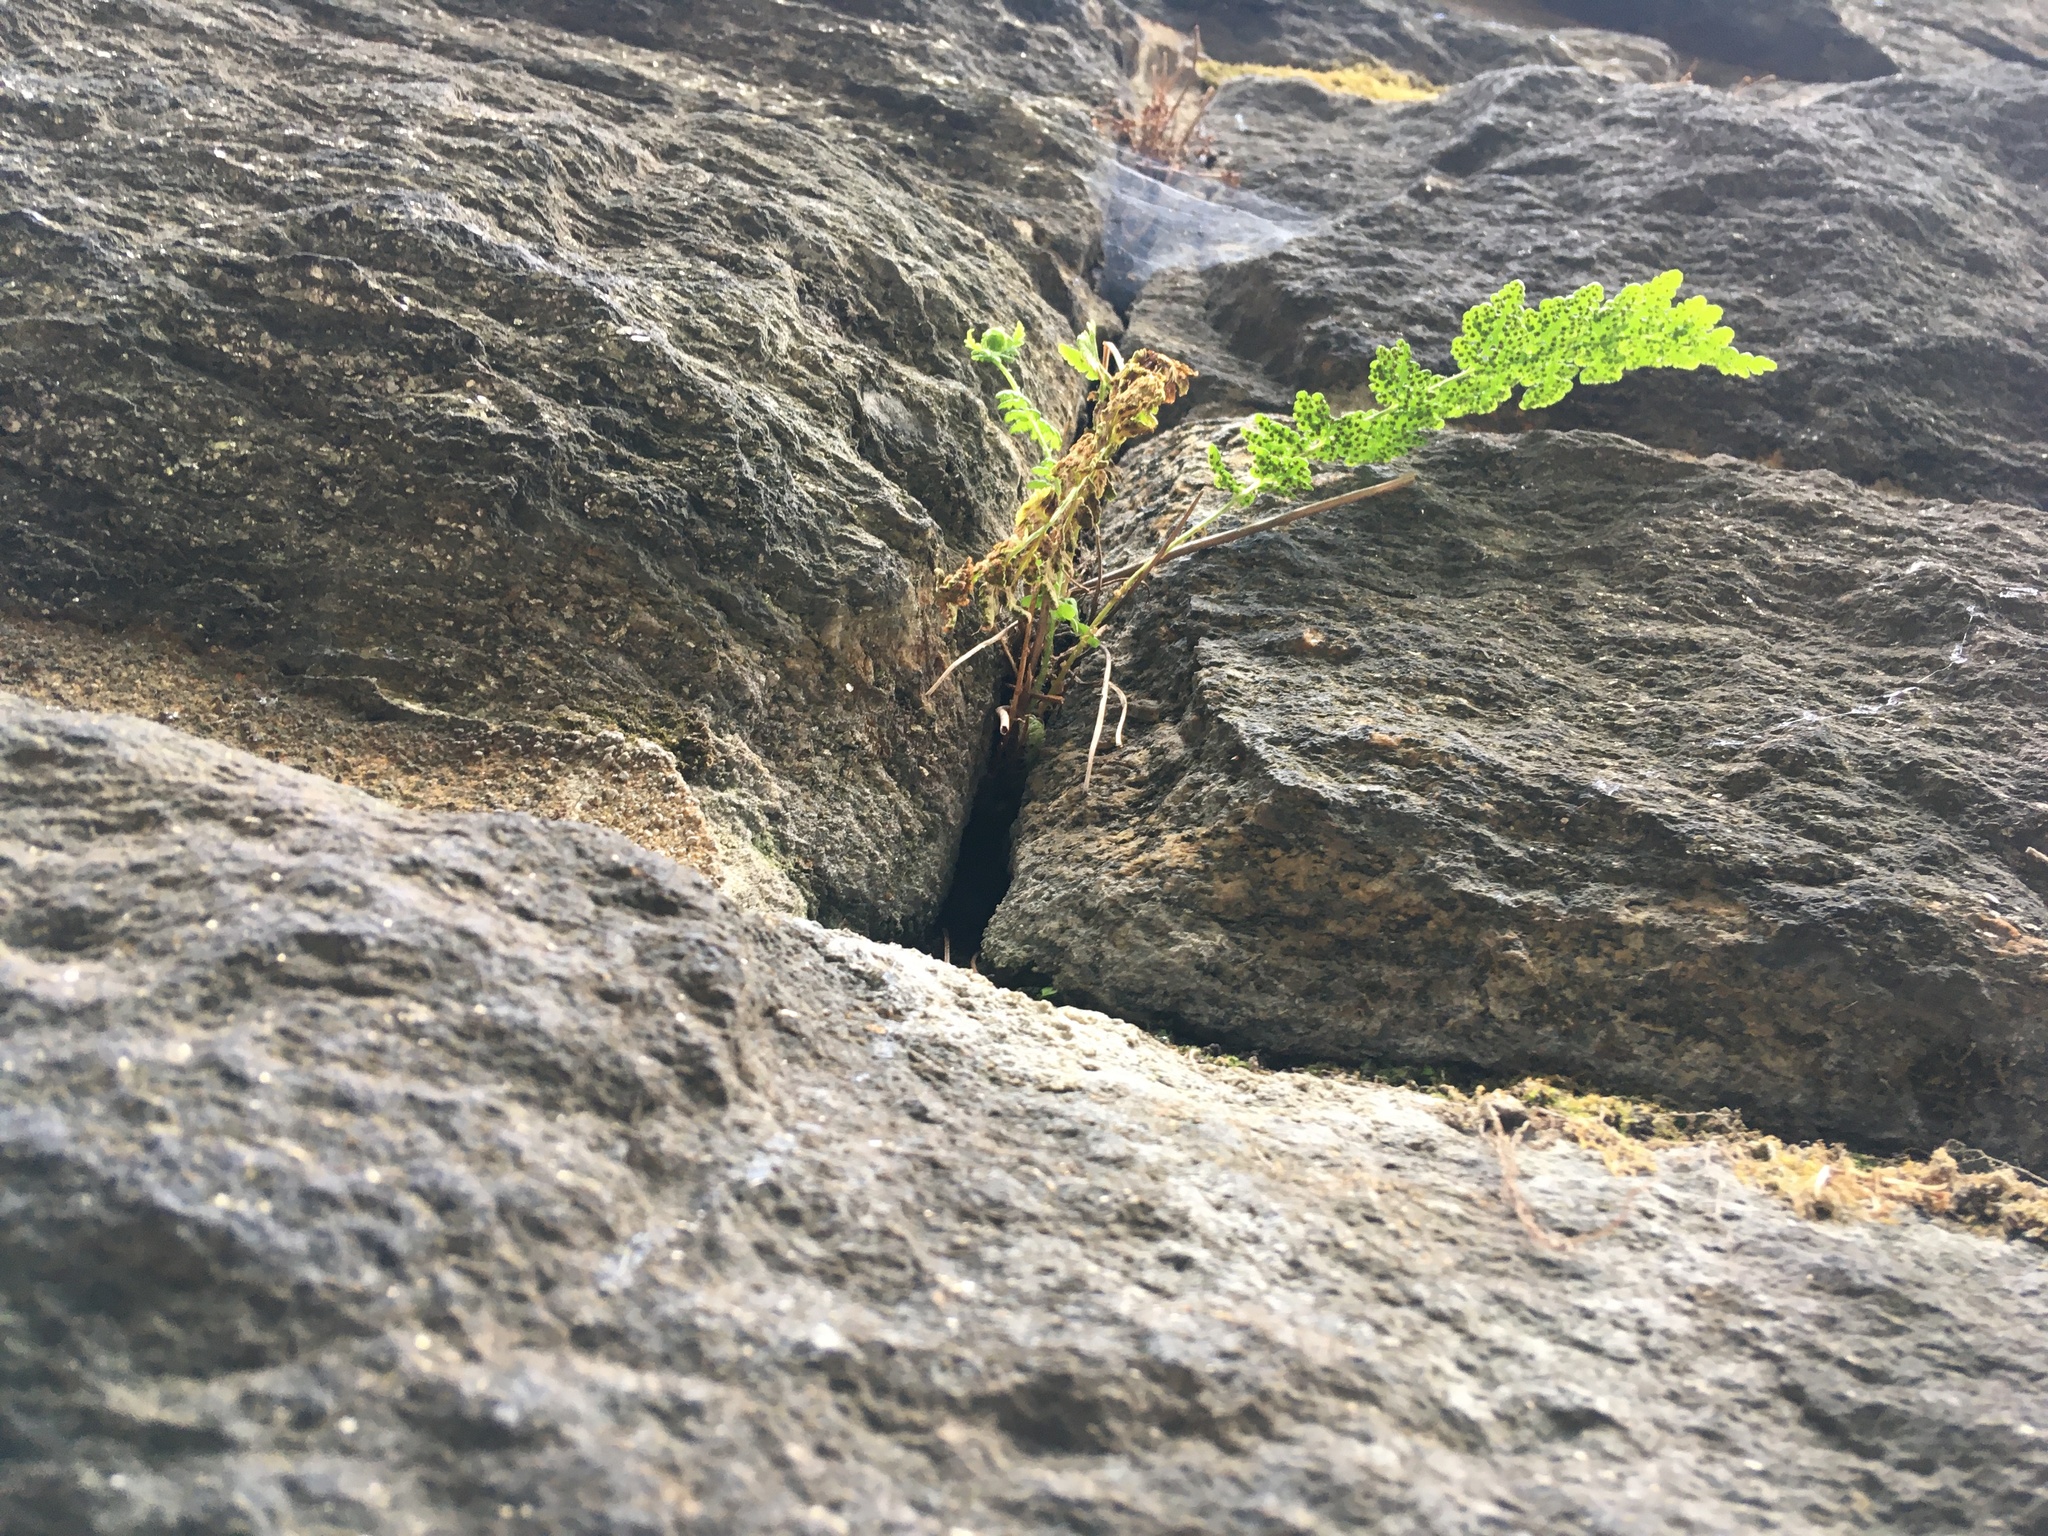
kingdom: Plantae
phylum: Tracheophyta
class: Polypodiopsida
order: Polypodiales
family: Woodsiaceae
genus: Physematium
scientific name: Physematium obtusum
